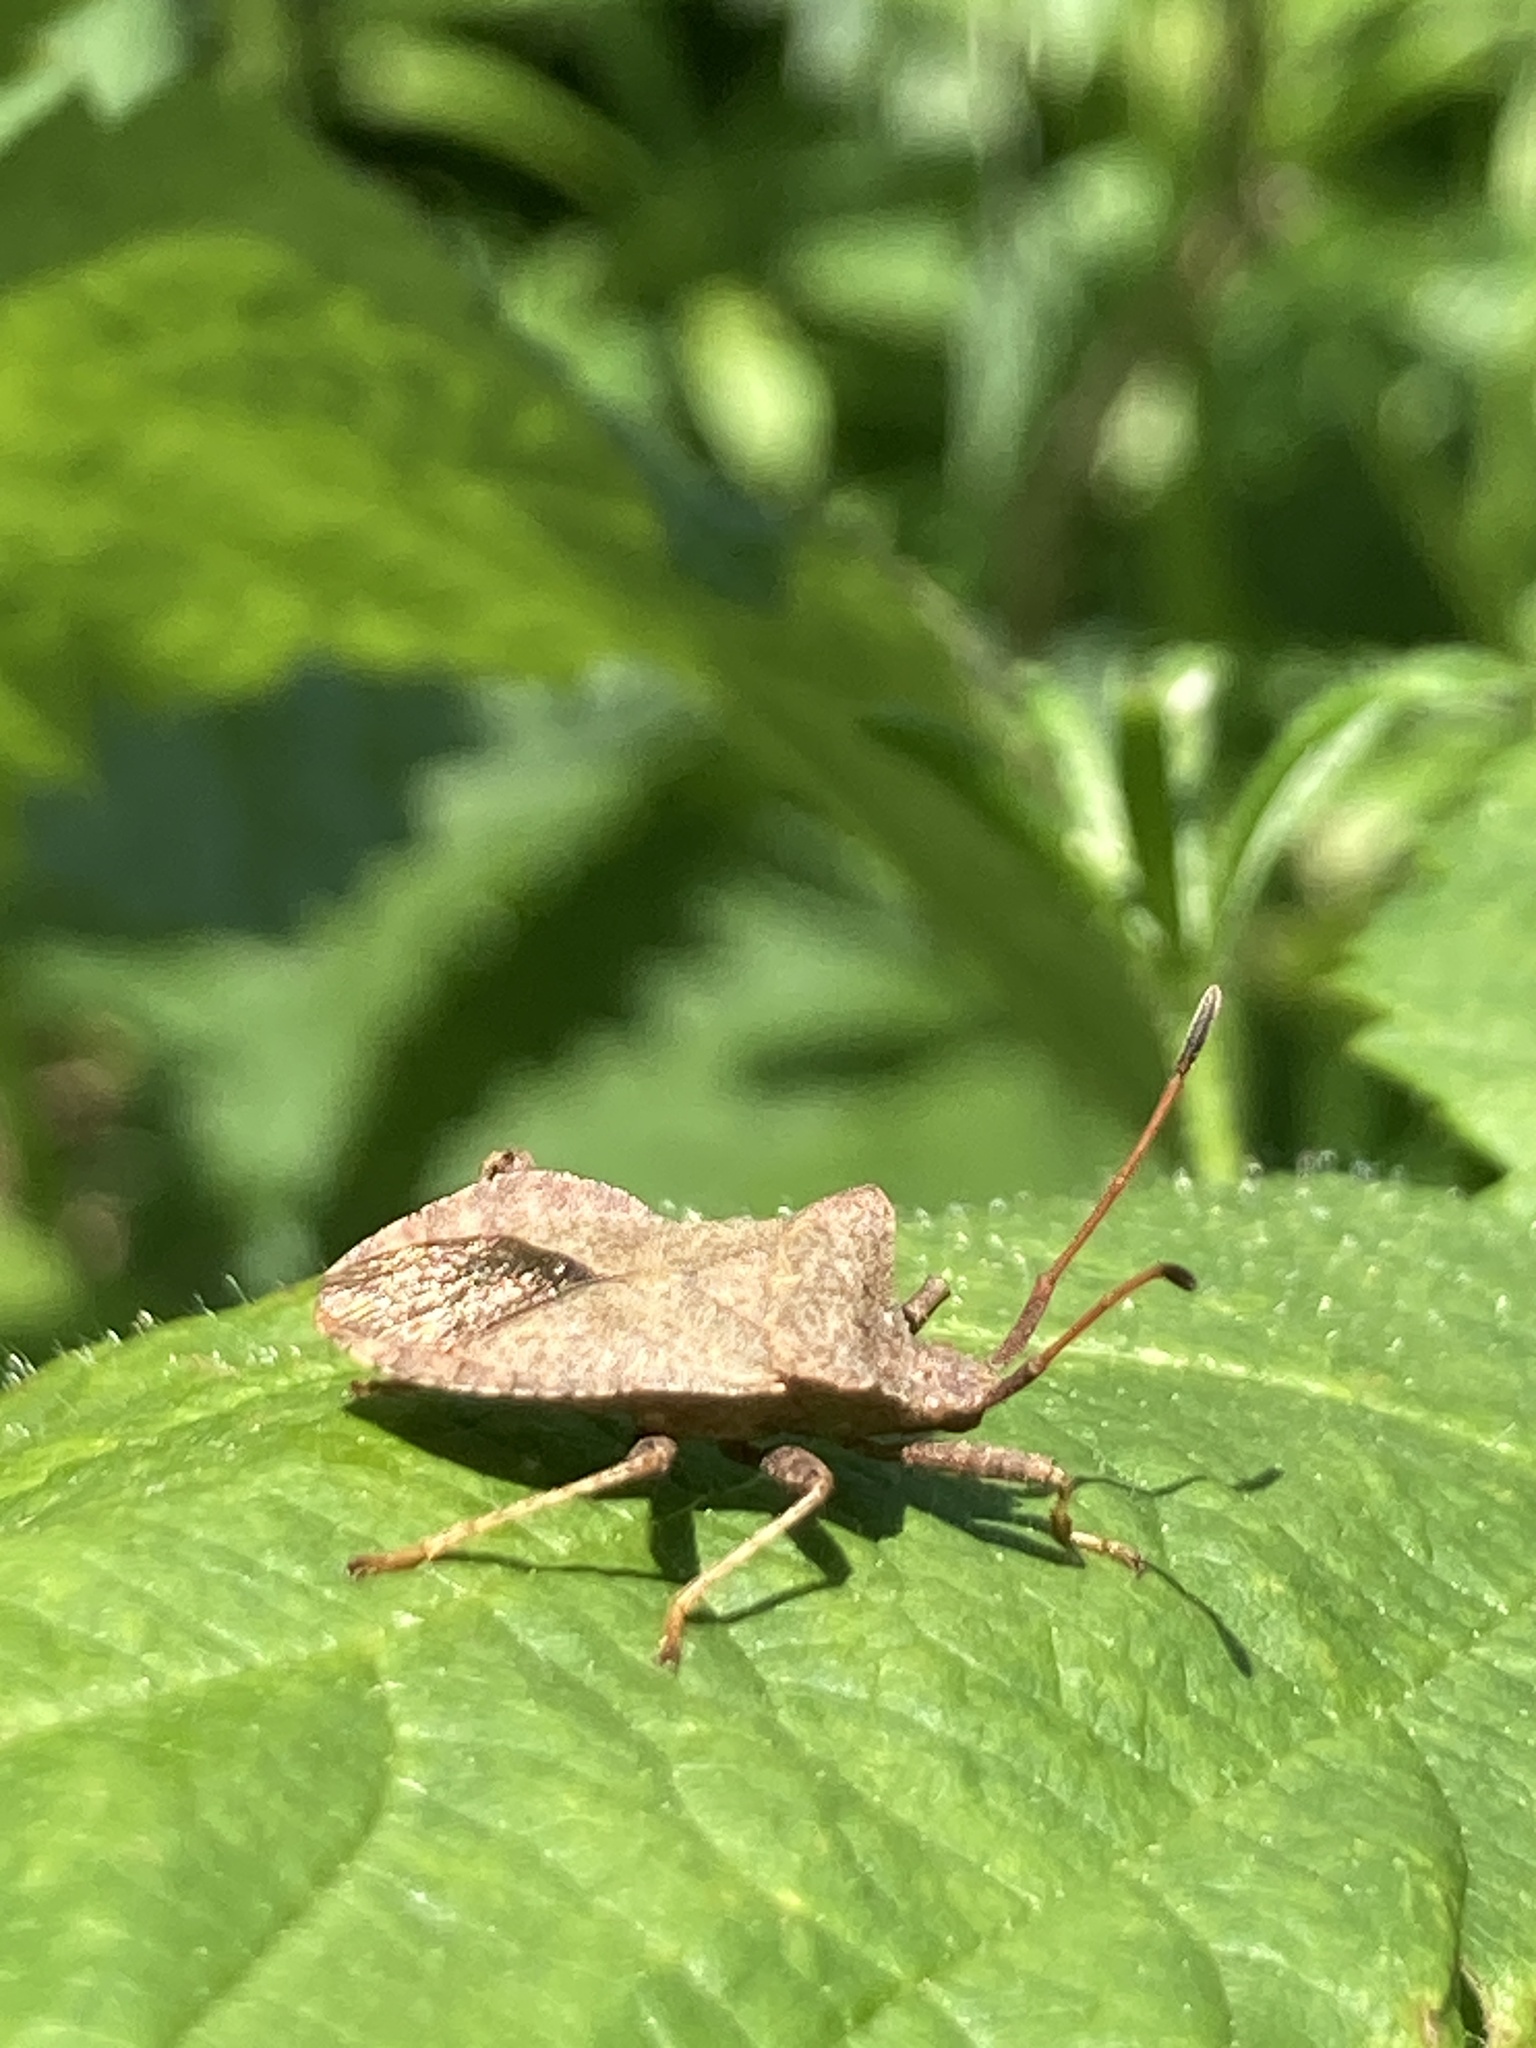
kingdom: Animalia
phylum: Arthropoda
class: Insecta
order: Hemiptera
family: Coreidae
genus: Coreus
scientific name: Coreus marginatus
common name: Dock bug
